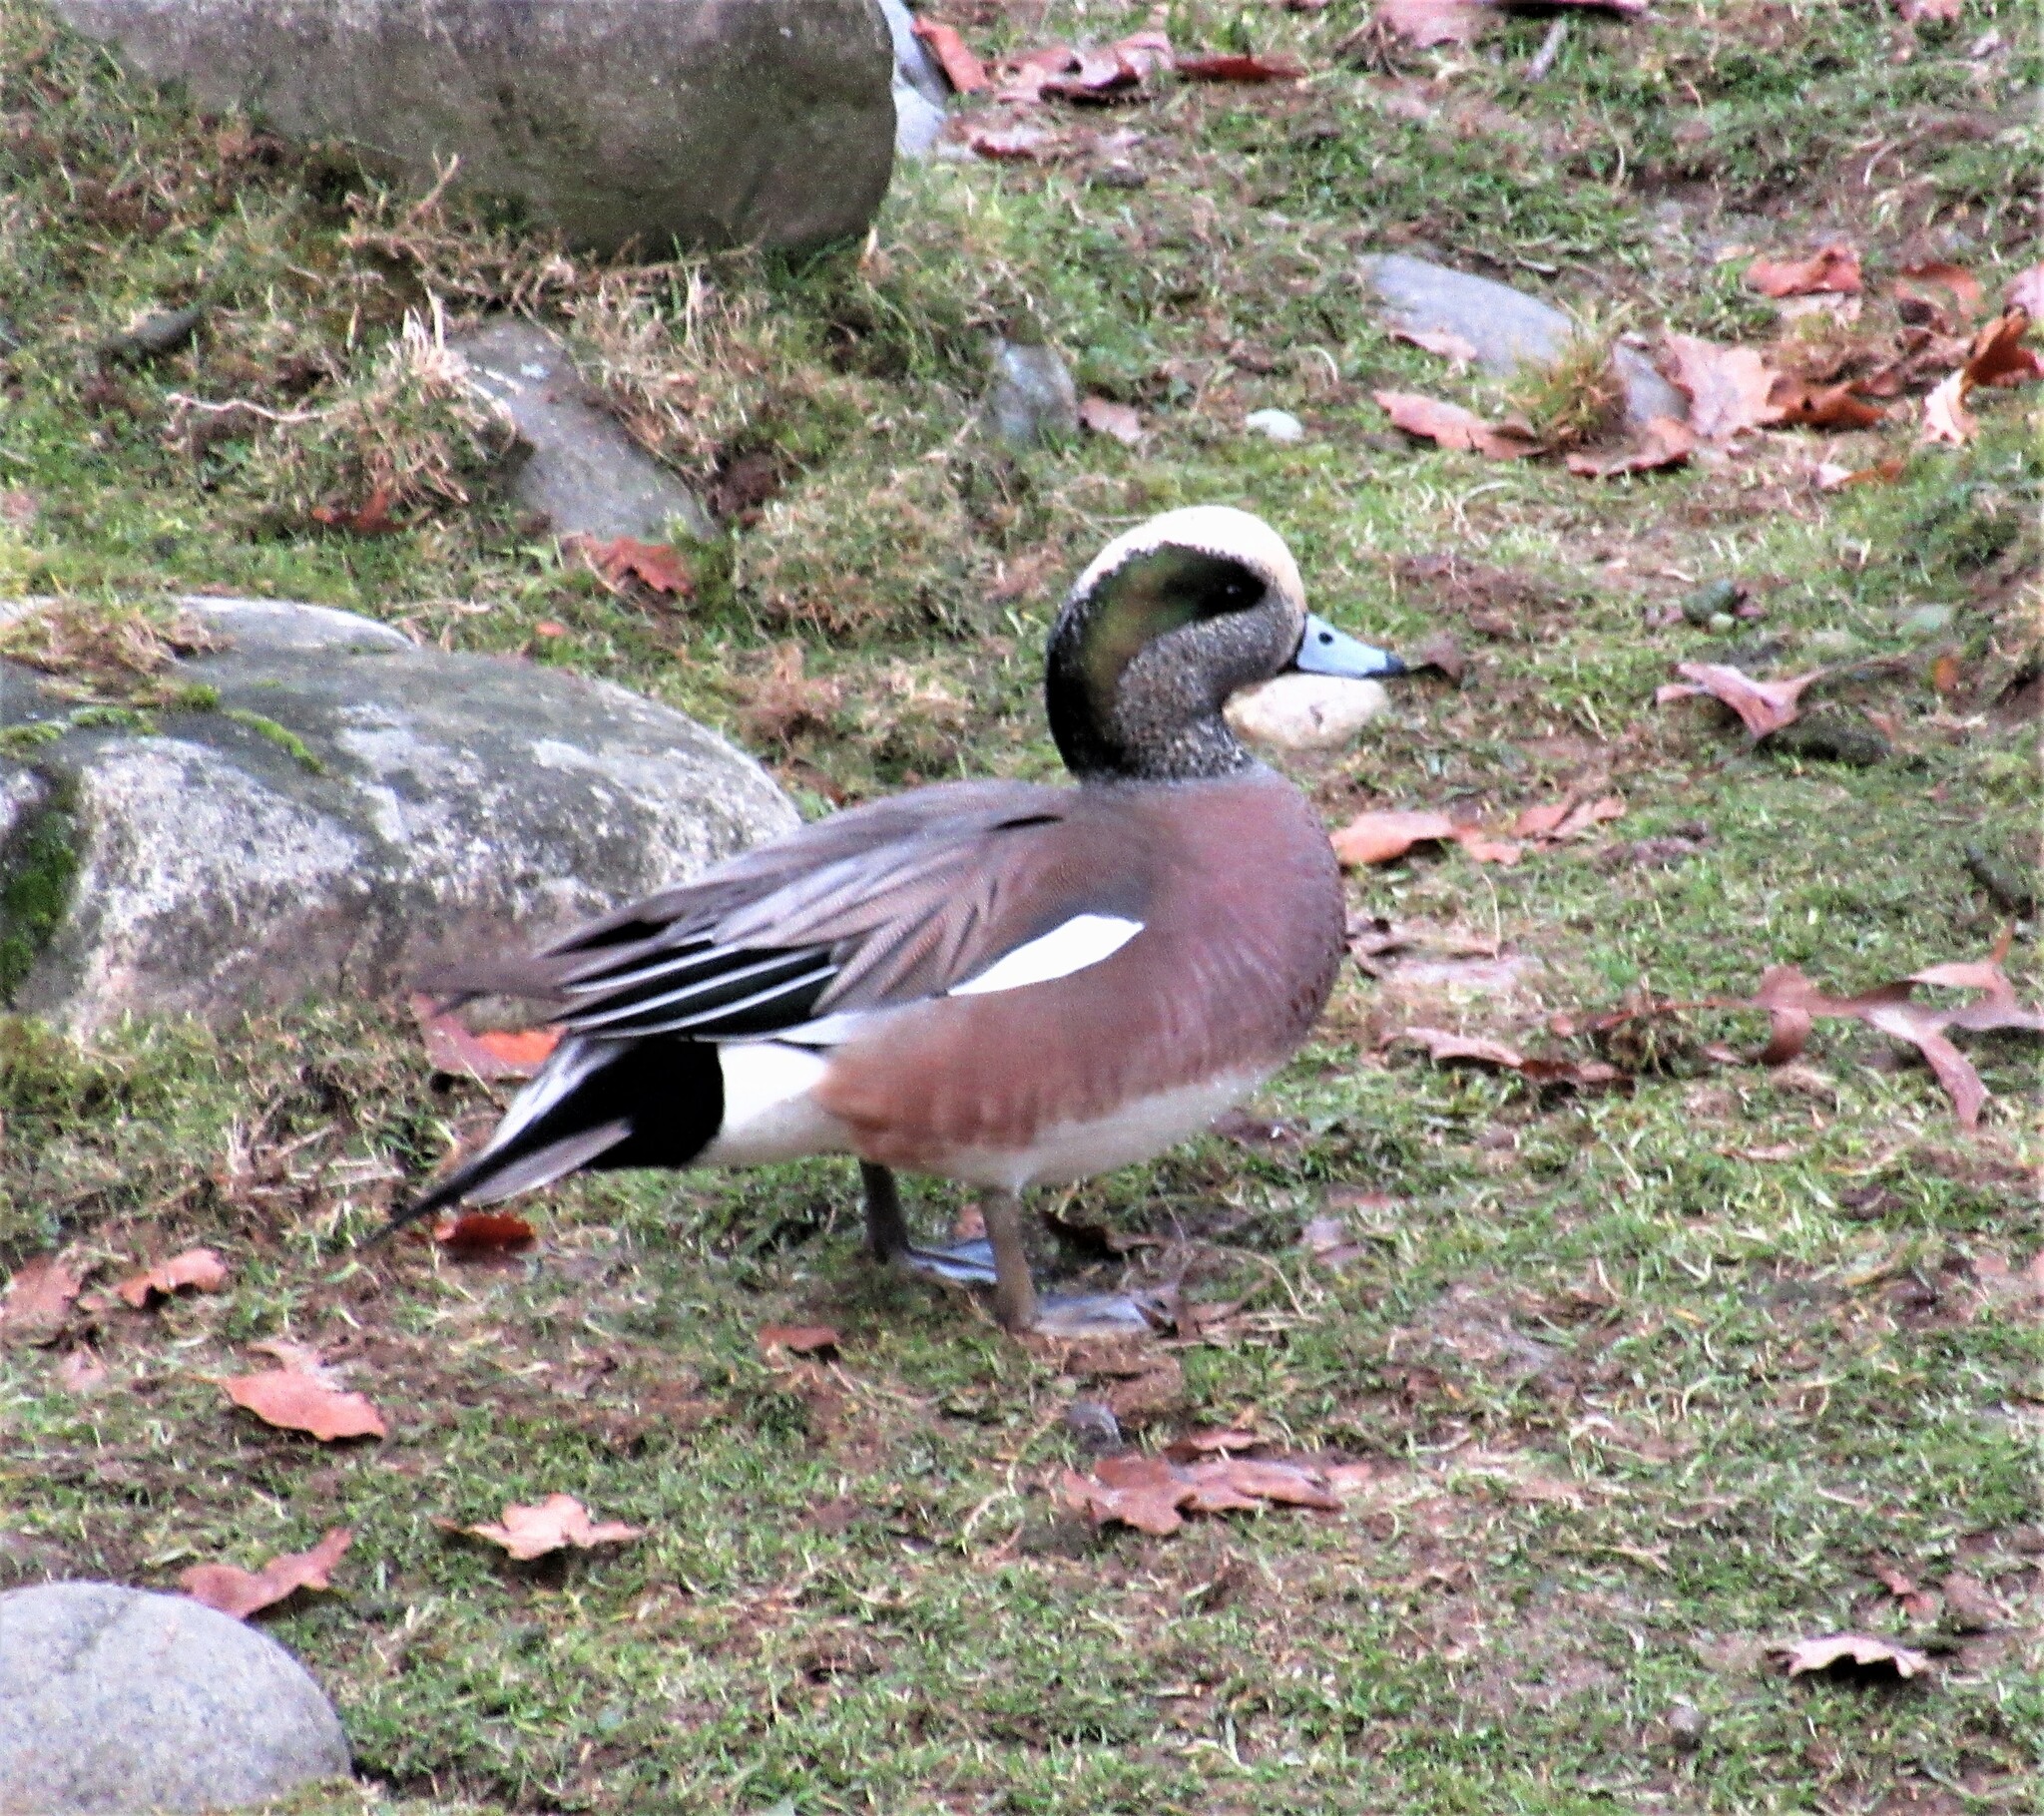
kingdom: Animalia
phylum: Chordata
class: Aves
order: Anseriformes
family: Anatidae
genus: Mareca
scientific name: Mareca americana
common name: American wigeon
